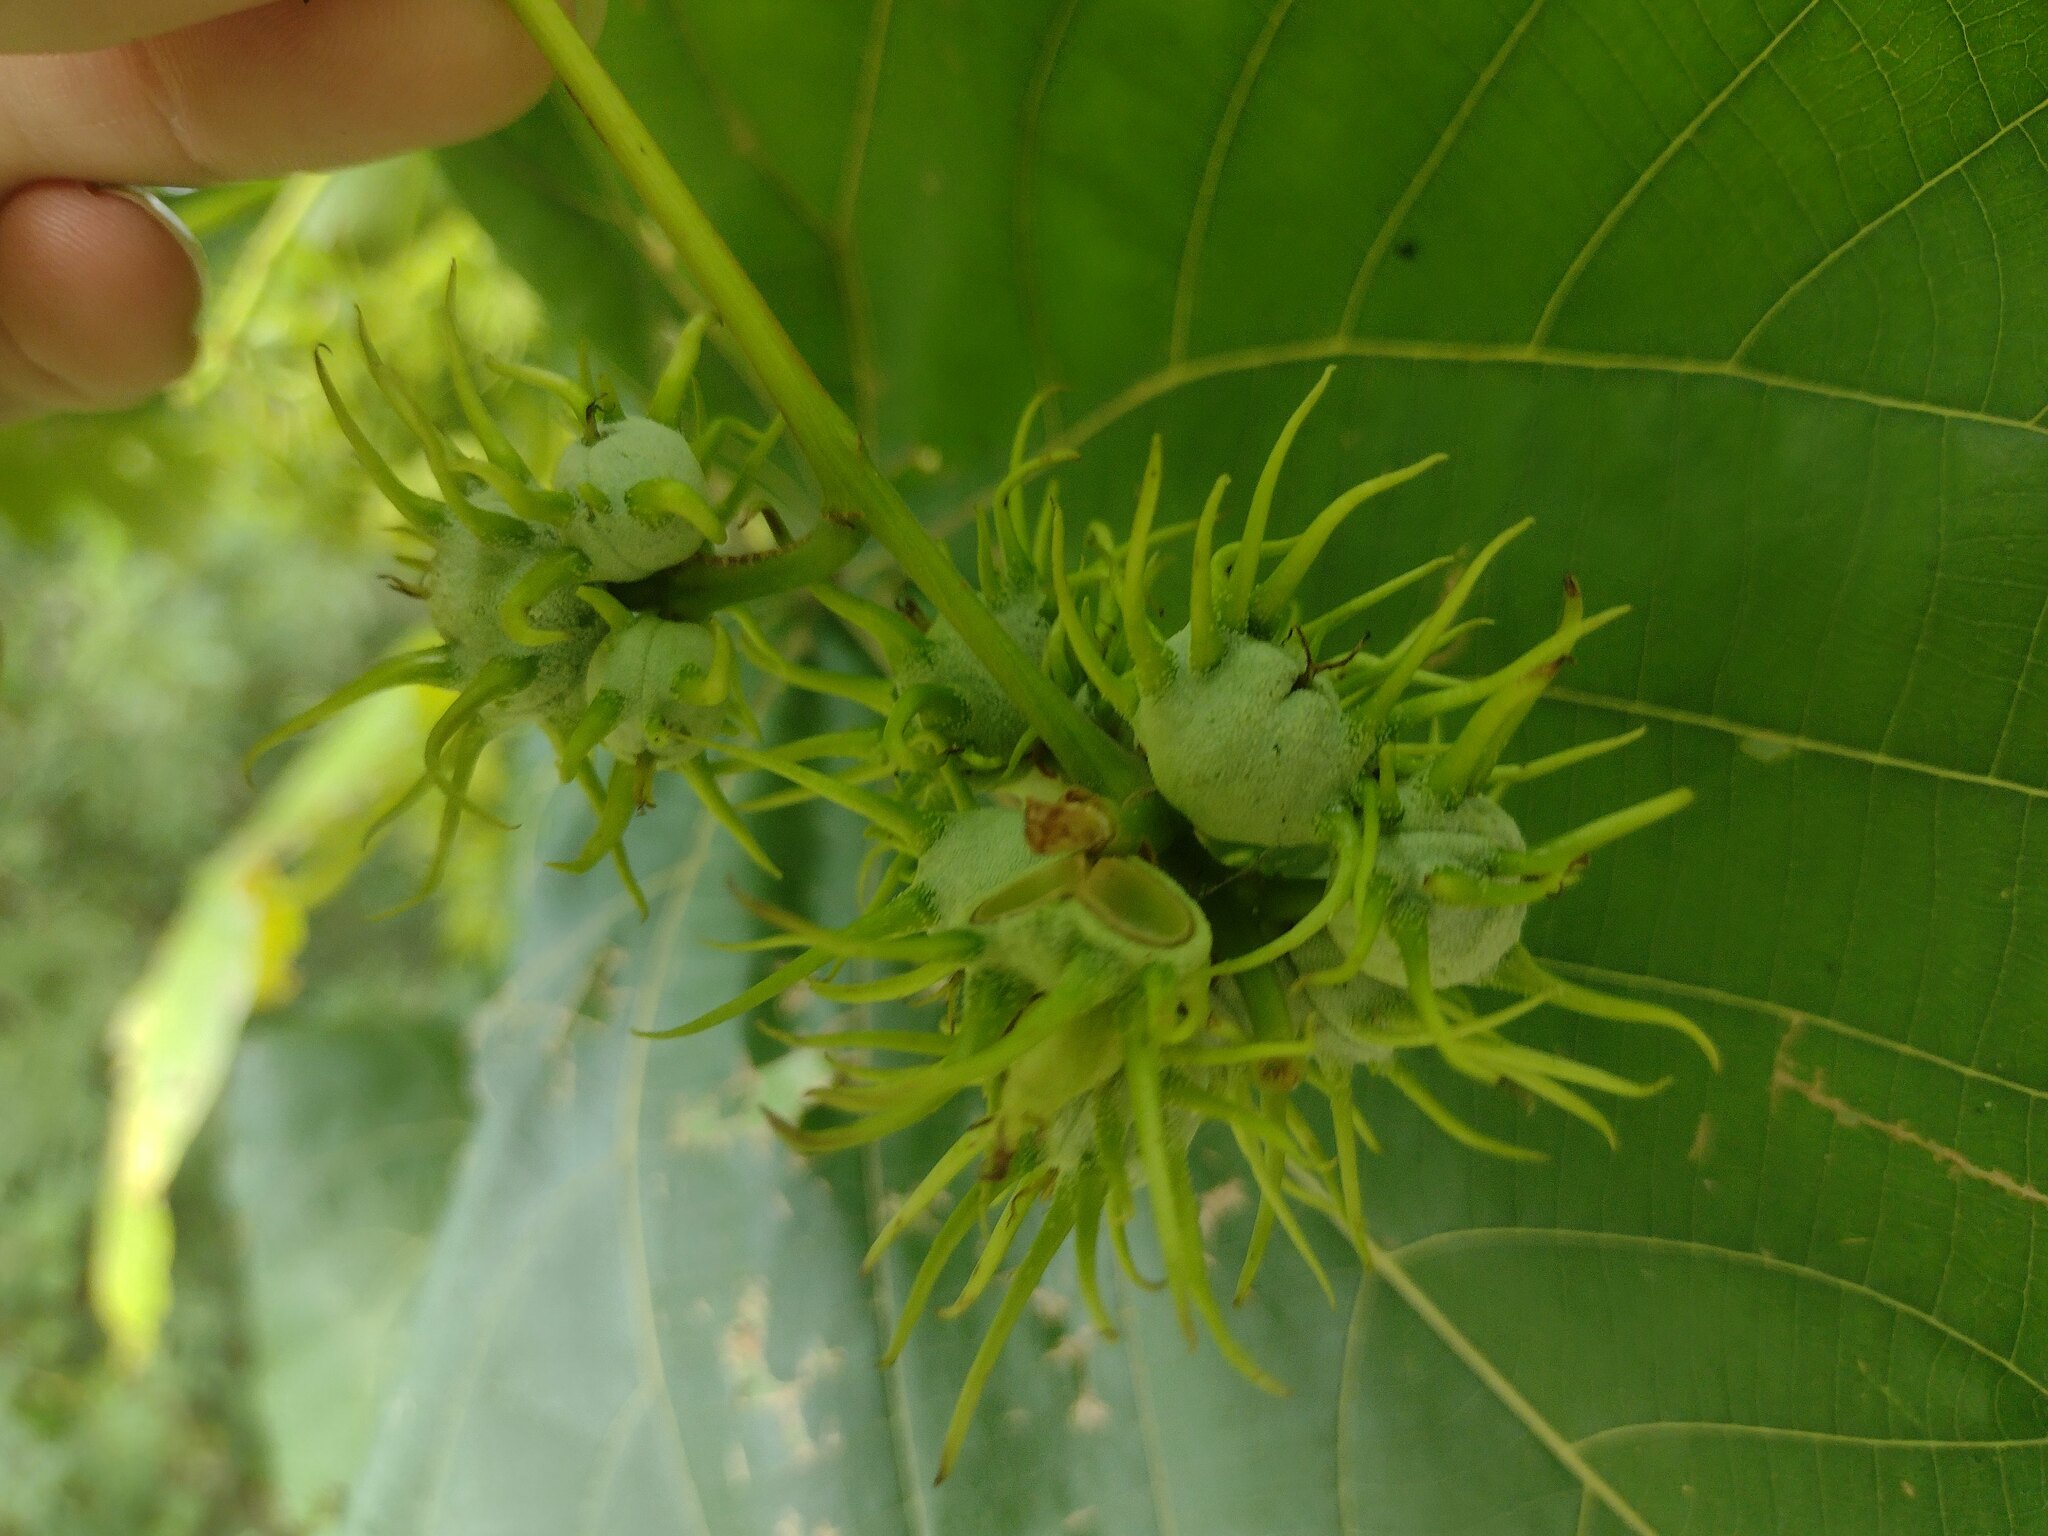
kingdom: Plantae
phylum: Tracheophyta
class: Magnoliopsida
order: Malpighiales
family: Euphorbiaceae
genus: Macaranga
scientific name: Macaranga tanarius
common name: Parasol leaf tree
